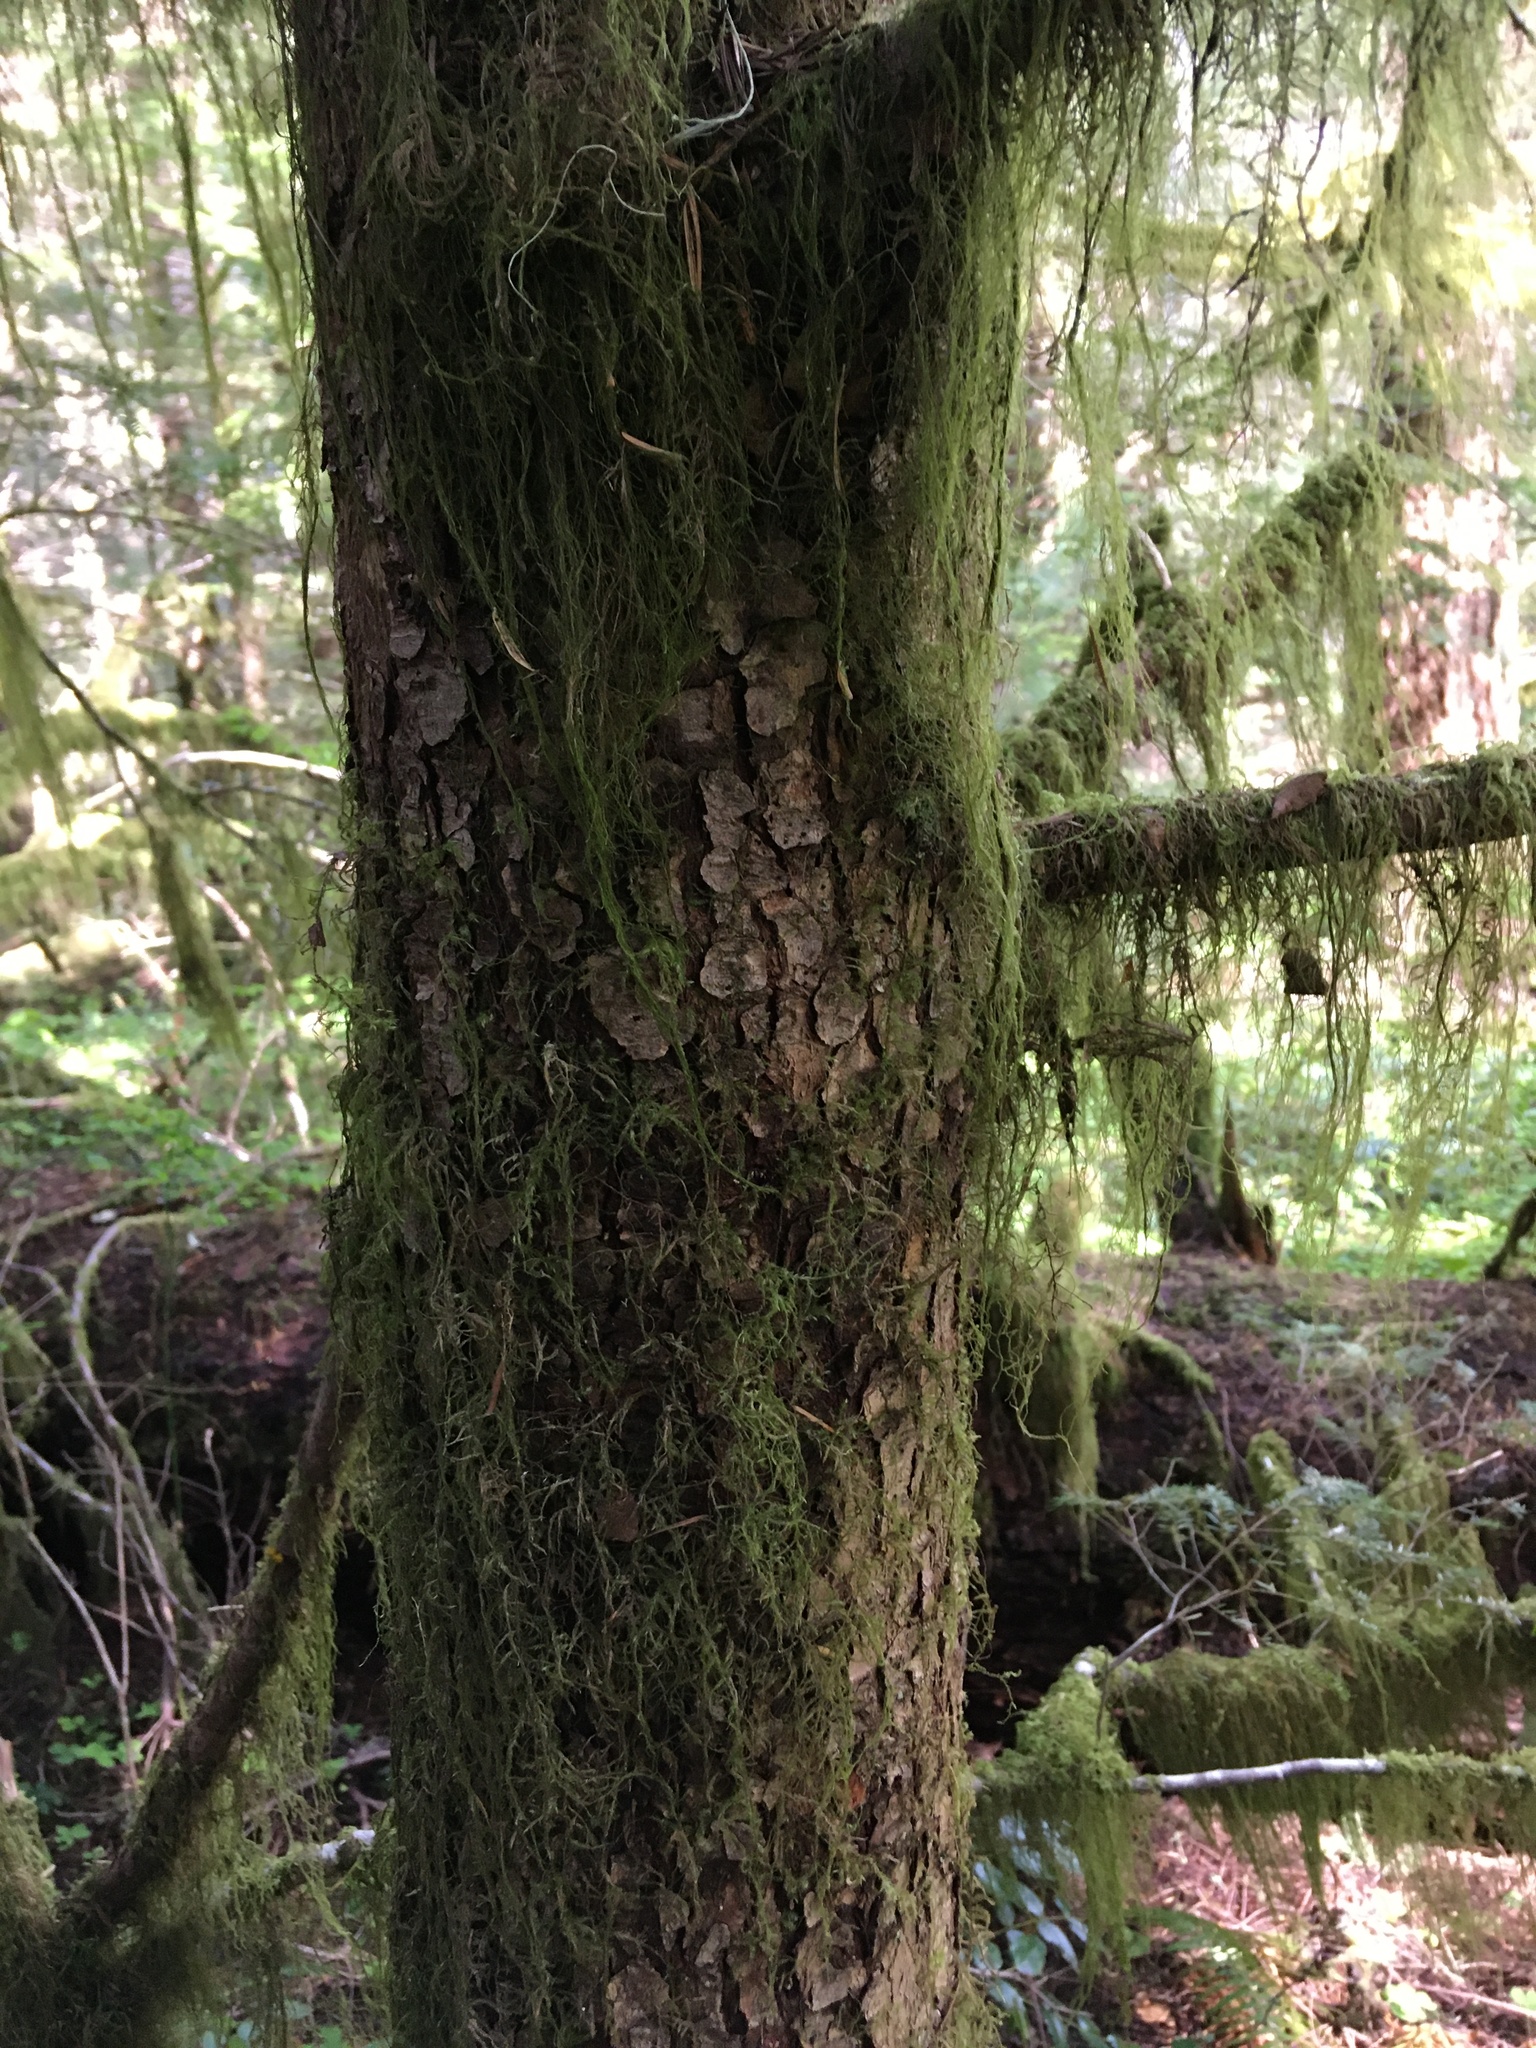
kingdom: Plantae
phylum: Tracheophyta
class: Pinopsida
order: Pinales
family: Pinaceae
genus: Tsuga
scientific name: Tsuga heterophylla
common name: Western hemlock
